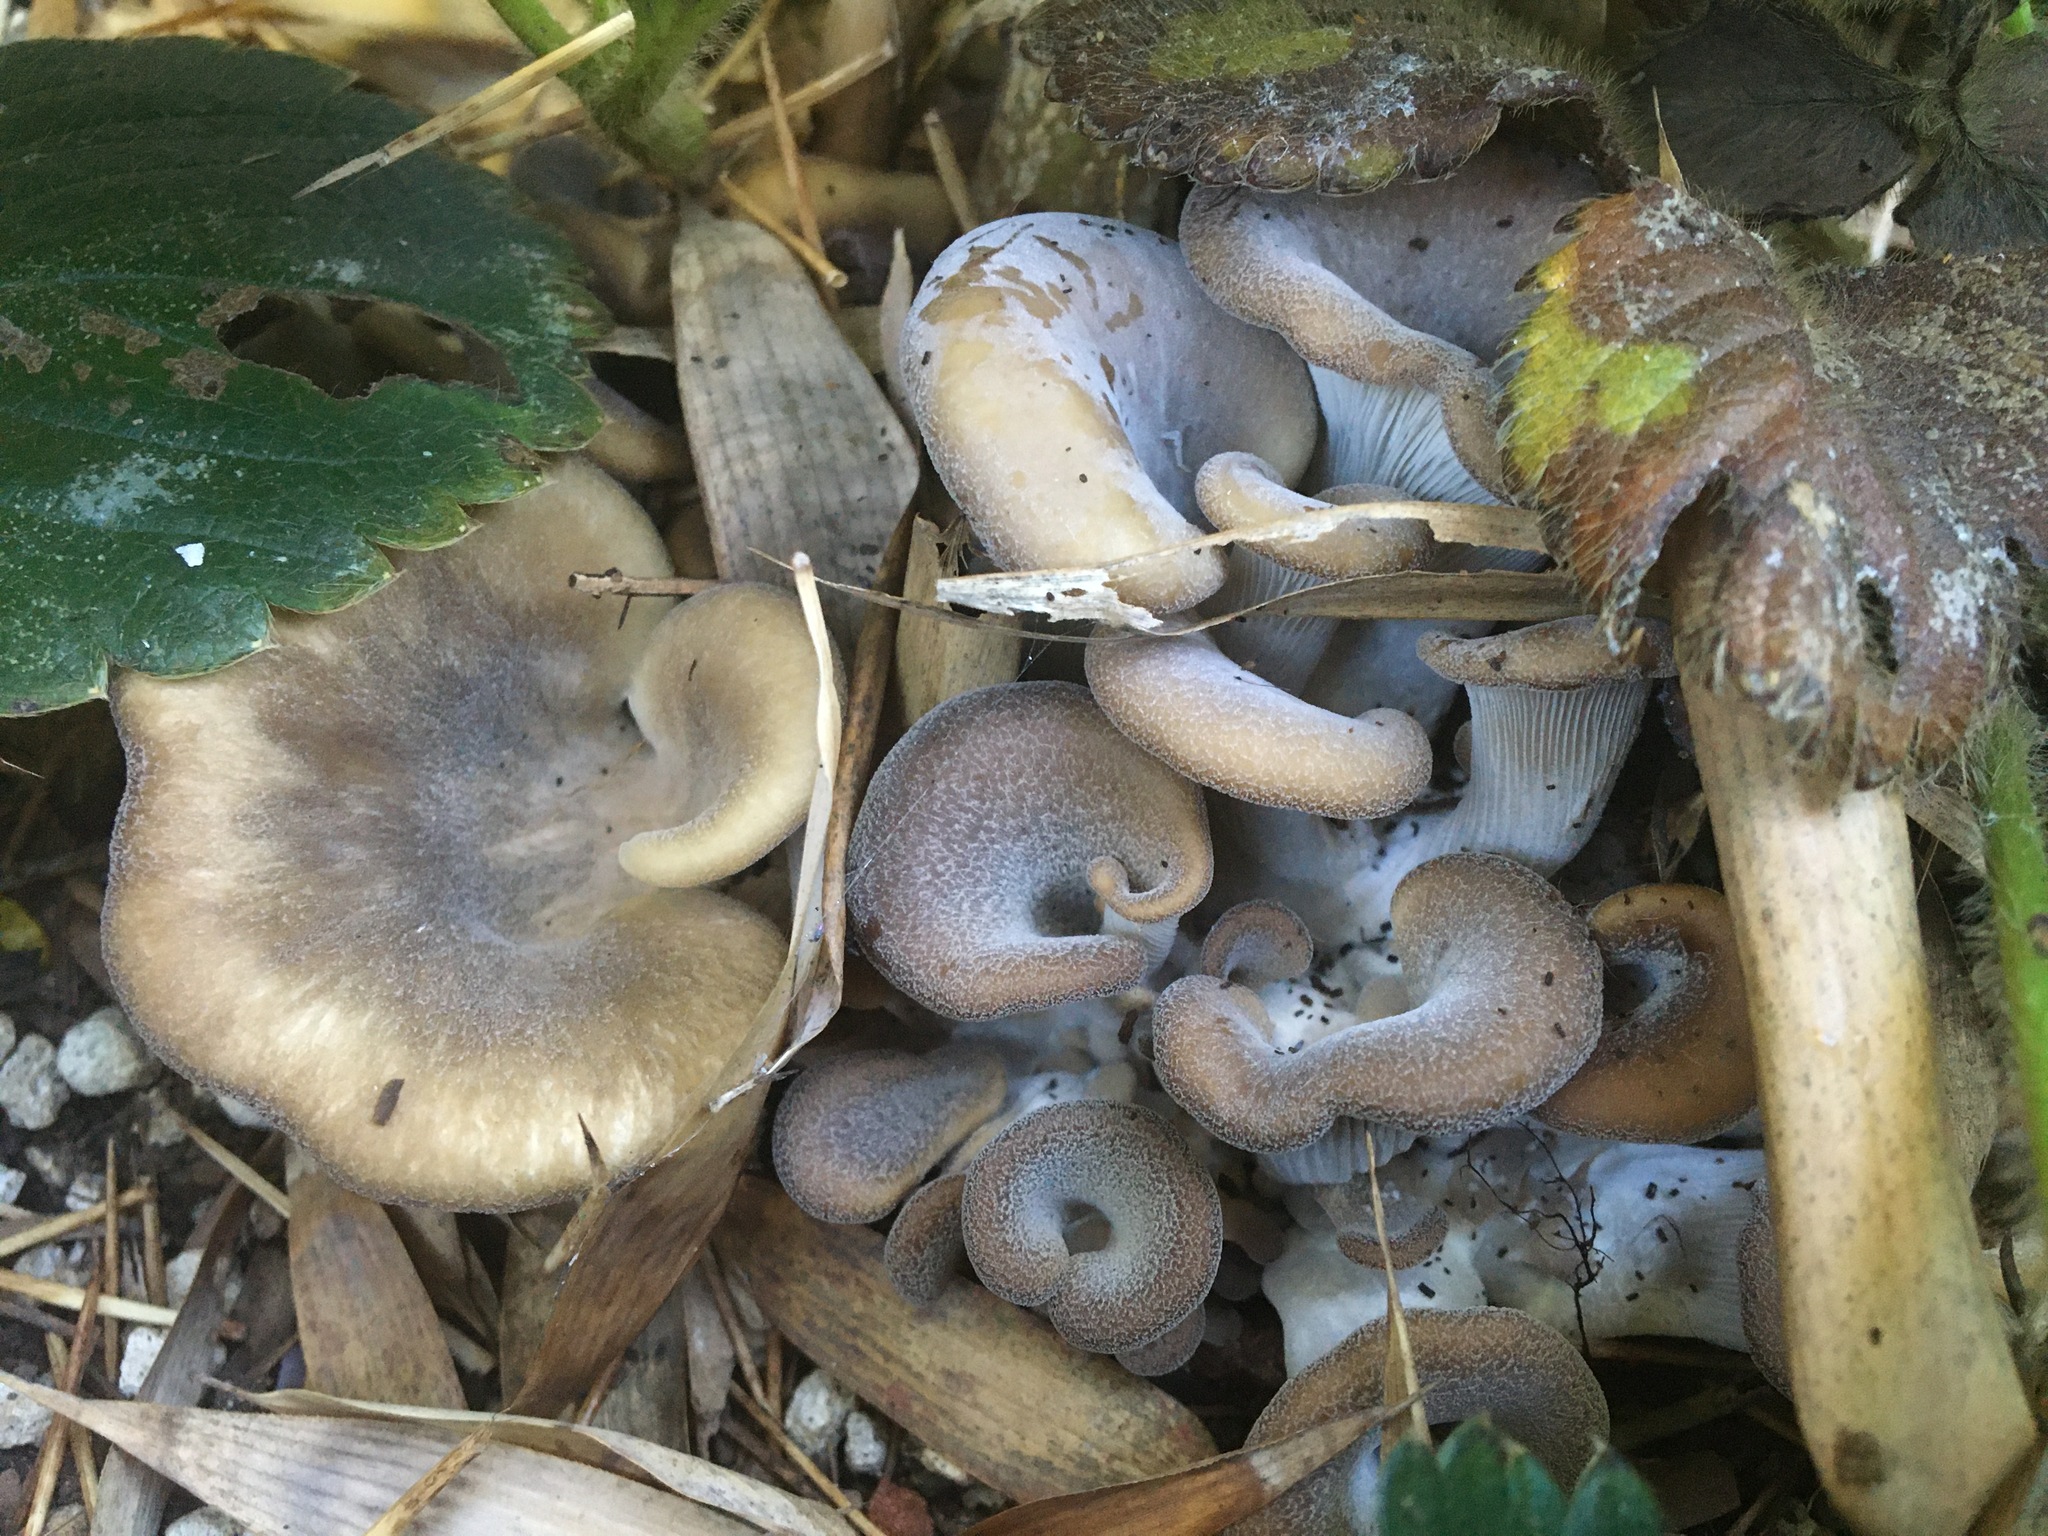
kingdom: Fungi
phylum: Basidiomycota
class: Agaricomycetes
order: Agaricales
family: Pleurotaceae
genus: Hohenbuehelia
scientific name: Hohenbuehelia petaloides
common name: Shoehorn oyster
